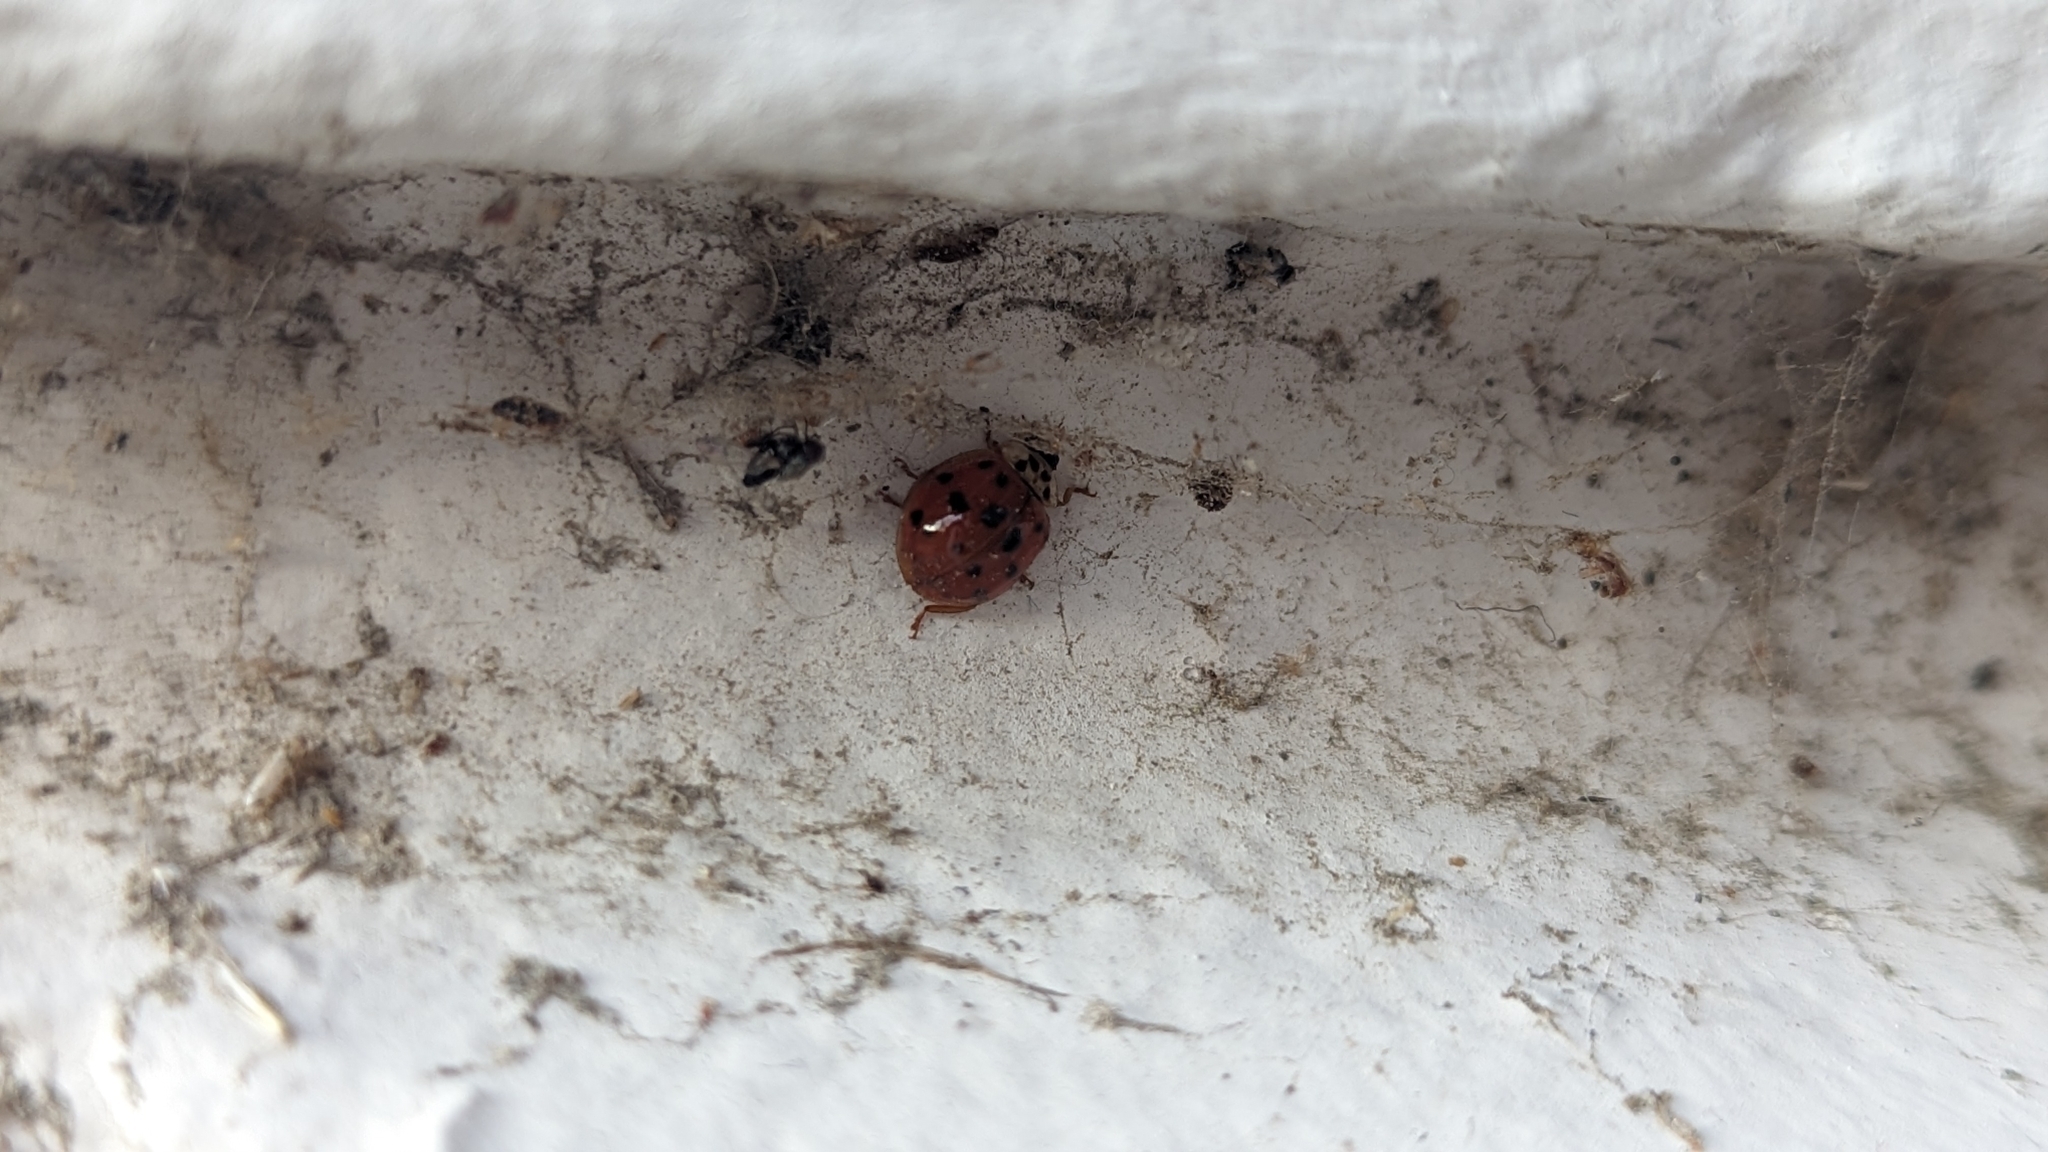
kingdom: Animalia
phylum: Arthropoda
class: Insecta
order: Coleoptera
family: Coccinellidae
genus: Harmonia
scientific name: Harmonia axyridis
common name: Harlequin ladybird
